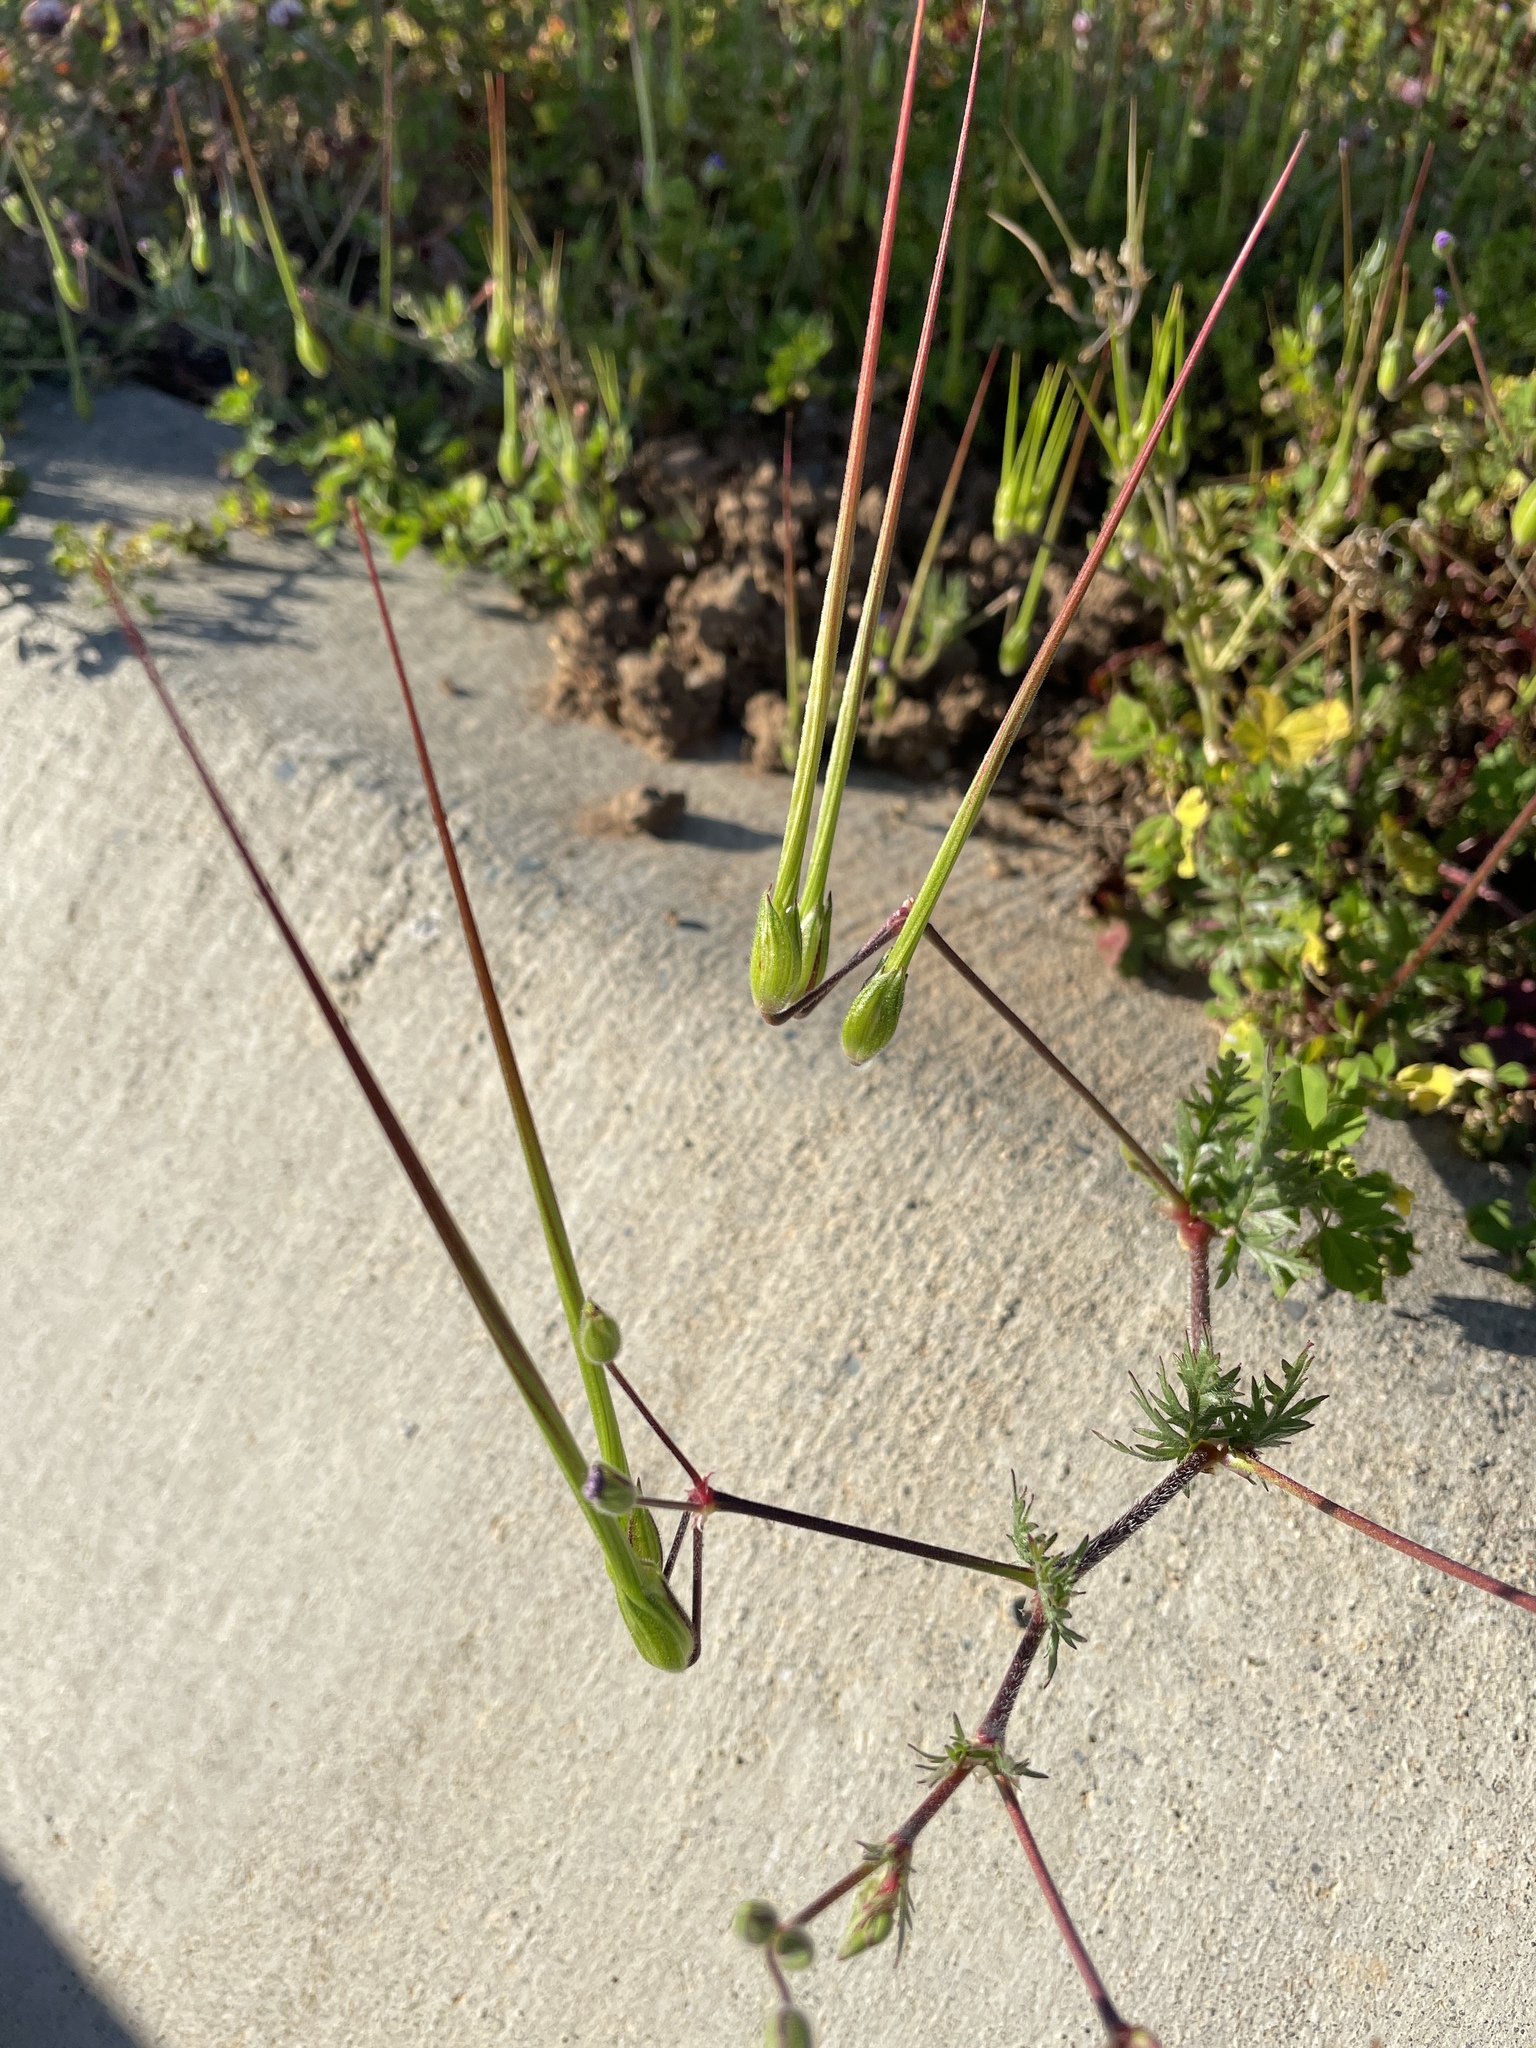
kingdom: Plantae
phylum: Tracheophyta
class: Magnoliopsida
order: Geraniales
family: Geraniaceae
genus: Erodium
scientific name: Erodium botrys
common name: Mediterranean stork's-bill
